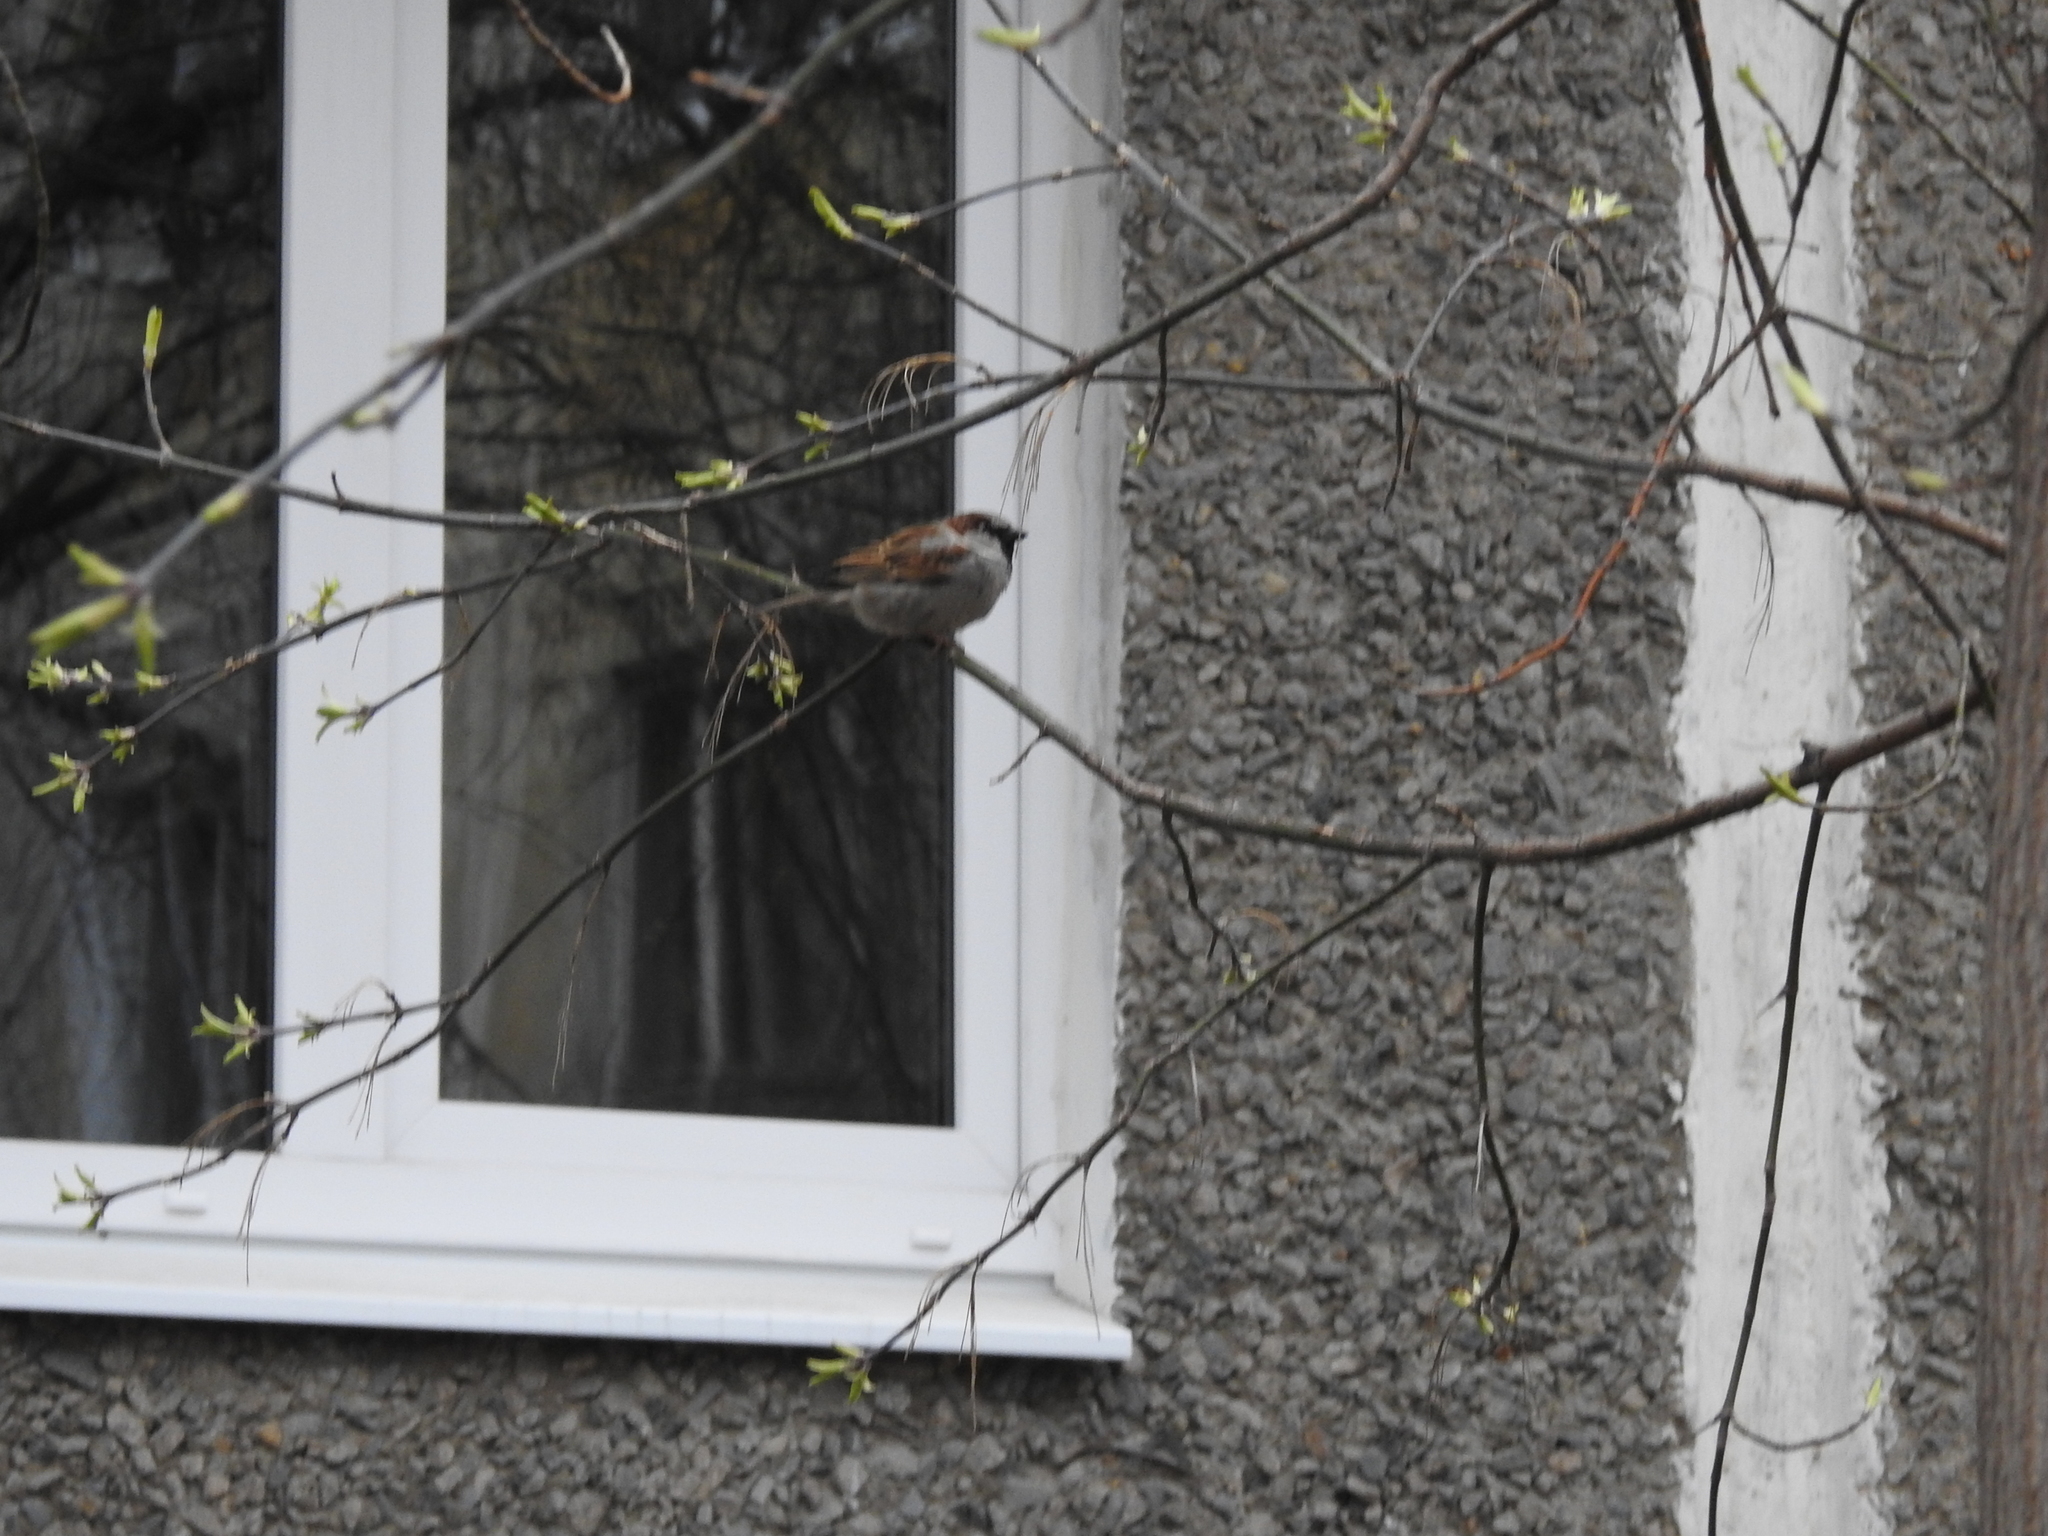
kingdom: Animalia
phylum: Chordata
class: Aves
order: Passeriformes
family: Passeridae
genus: Passer
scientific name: Passer domesticus
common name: House sparrow
